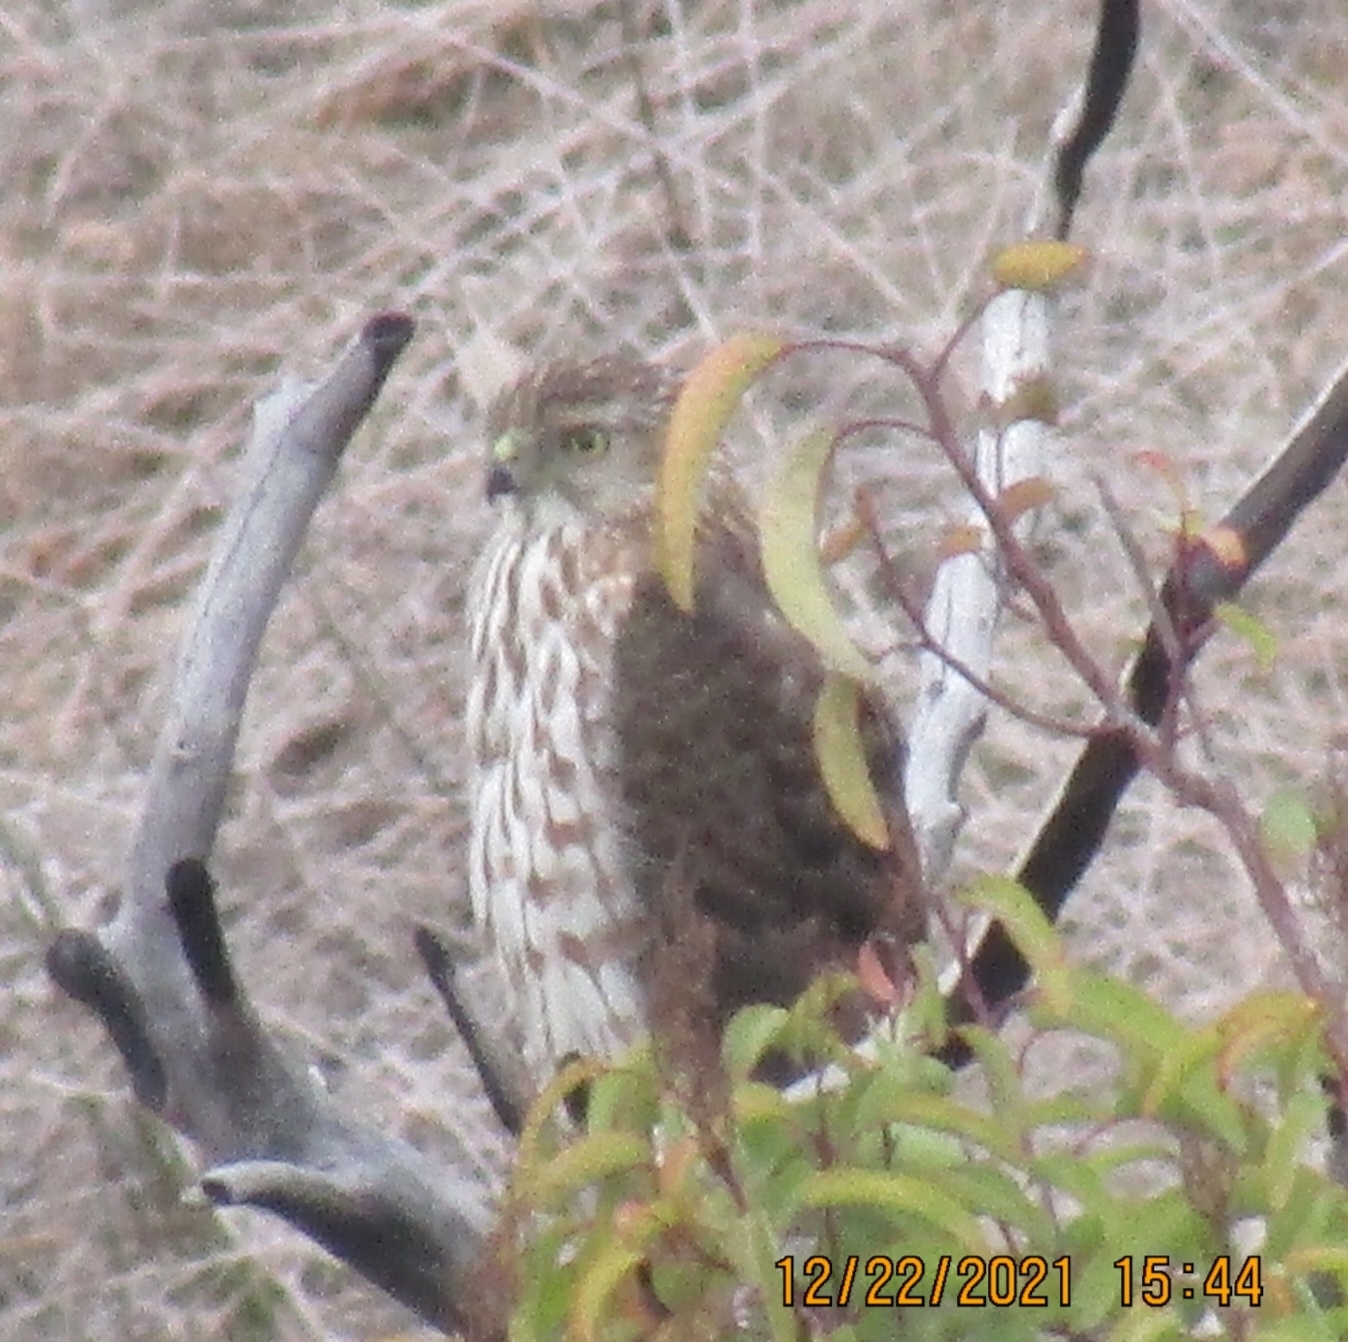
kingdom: Animalia
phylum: Chordata
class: Aves
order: Accipitriformes
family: Accipitridae
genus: Accipiter
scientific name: Accipiter cooperii
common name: Cooper's hawk
